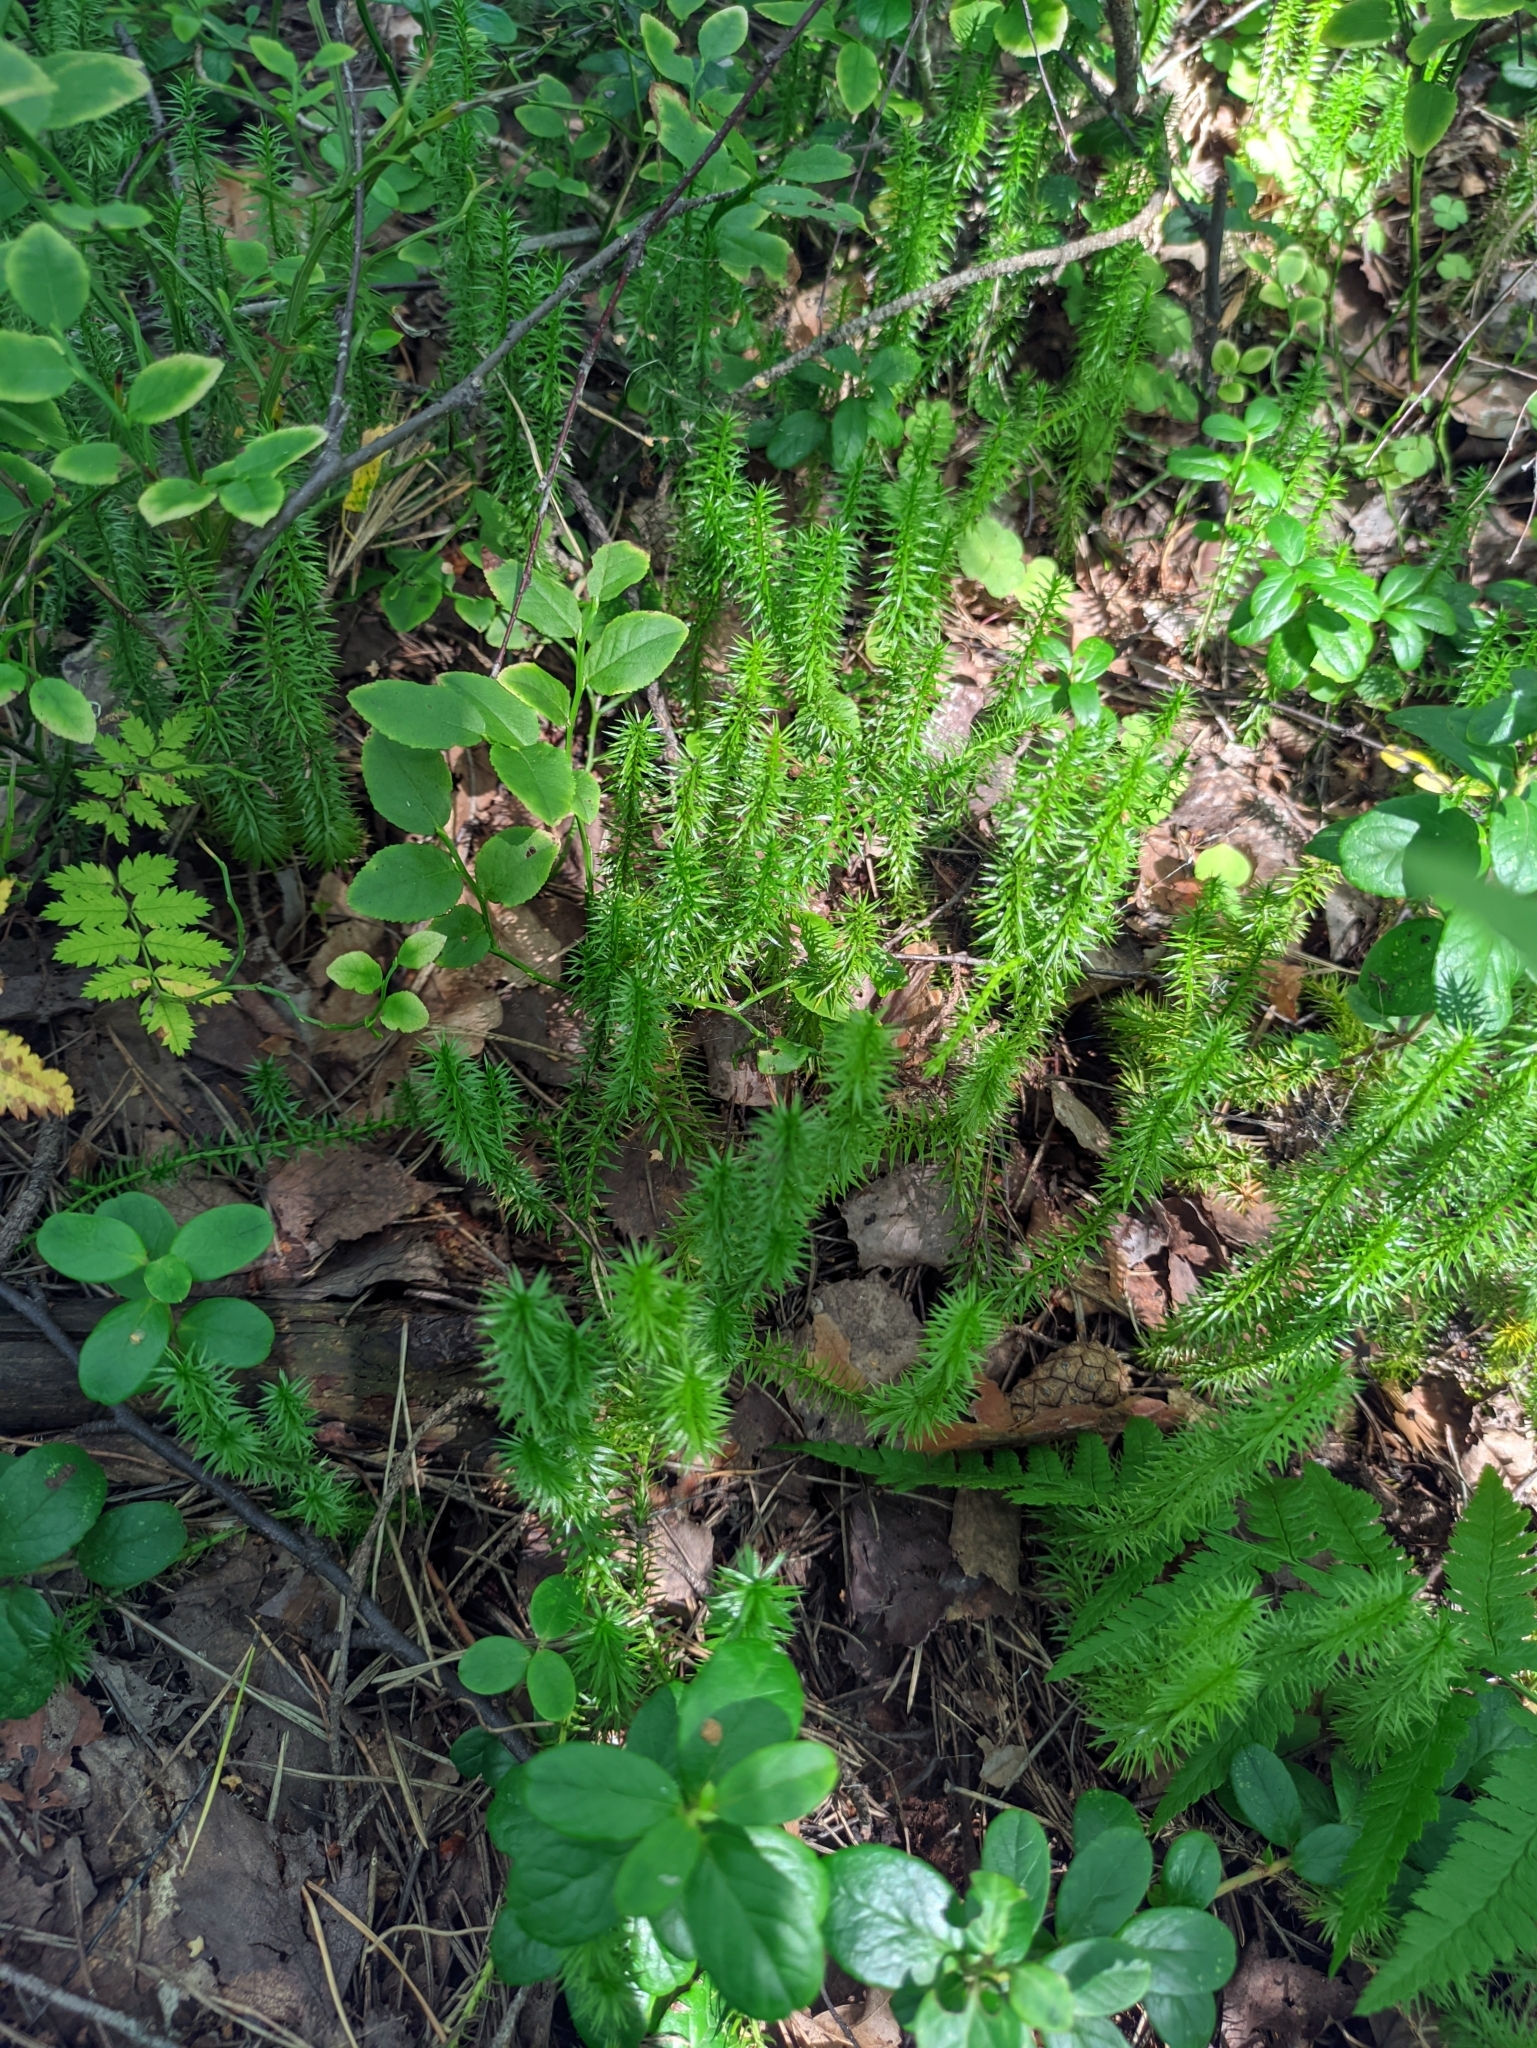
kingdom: Plantae
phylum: Tracheophyta
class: Lycopodiopsida
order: Lycopodiales
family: Lycopodiaceae
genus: Spinulum
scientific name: Spinulum annotinum
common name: Interrupted club-moss
